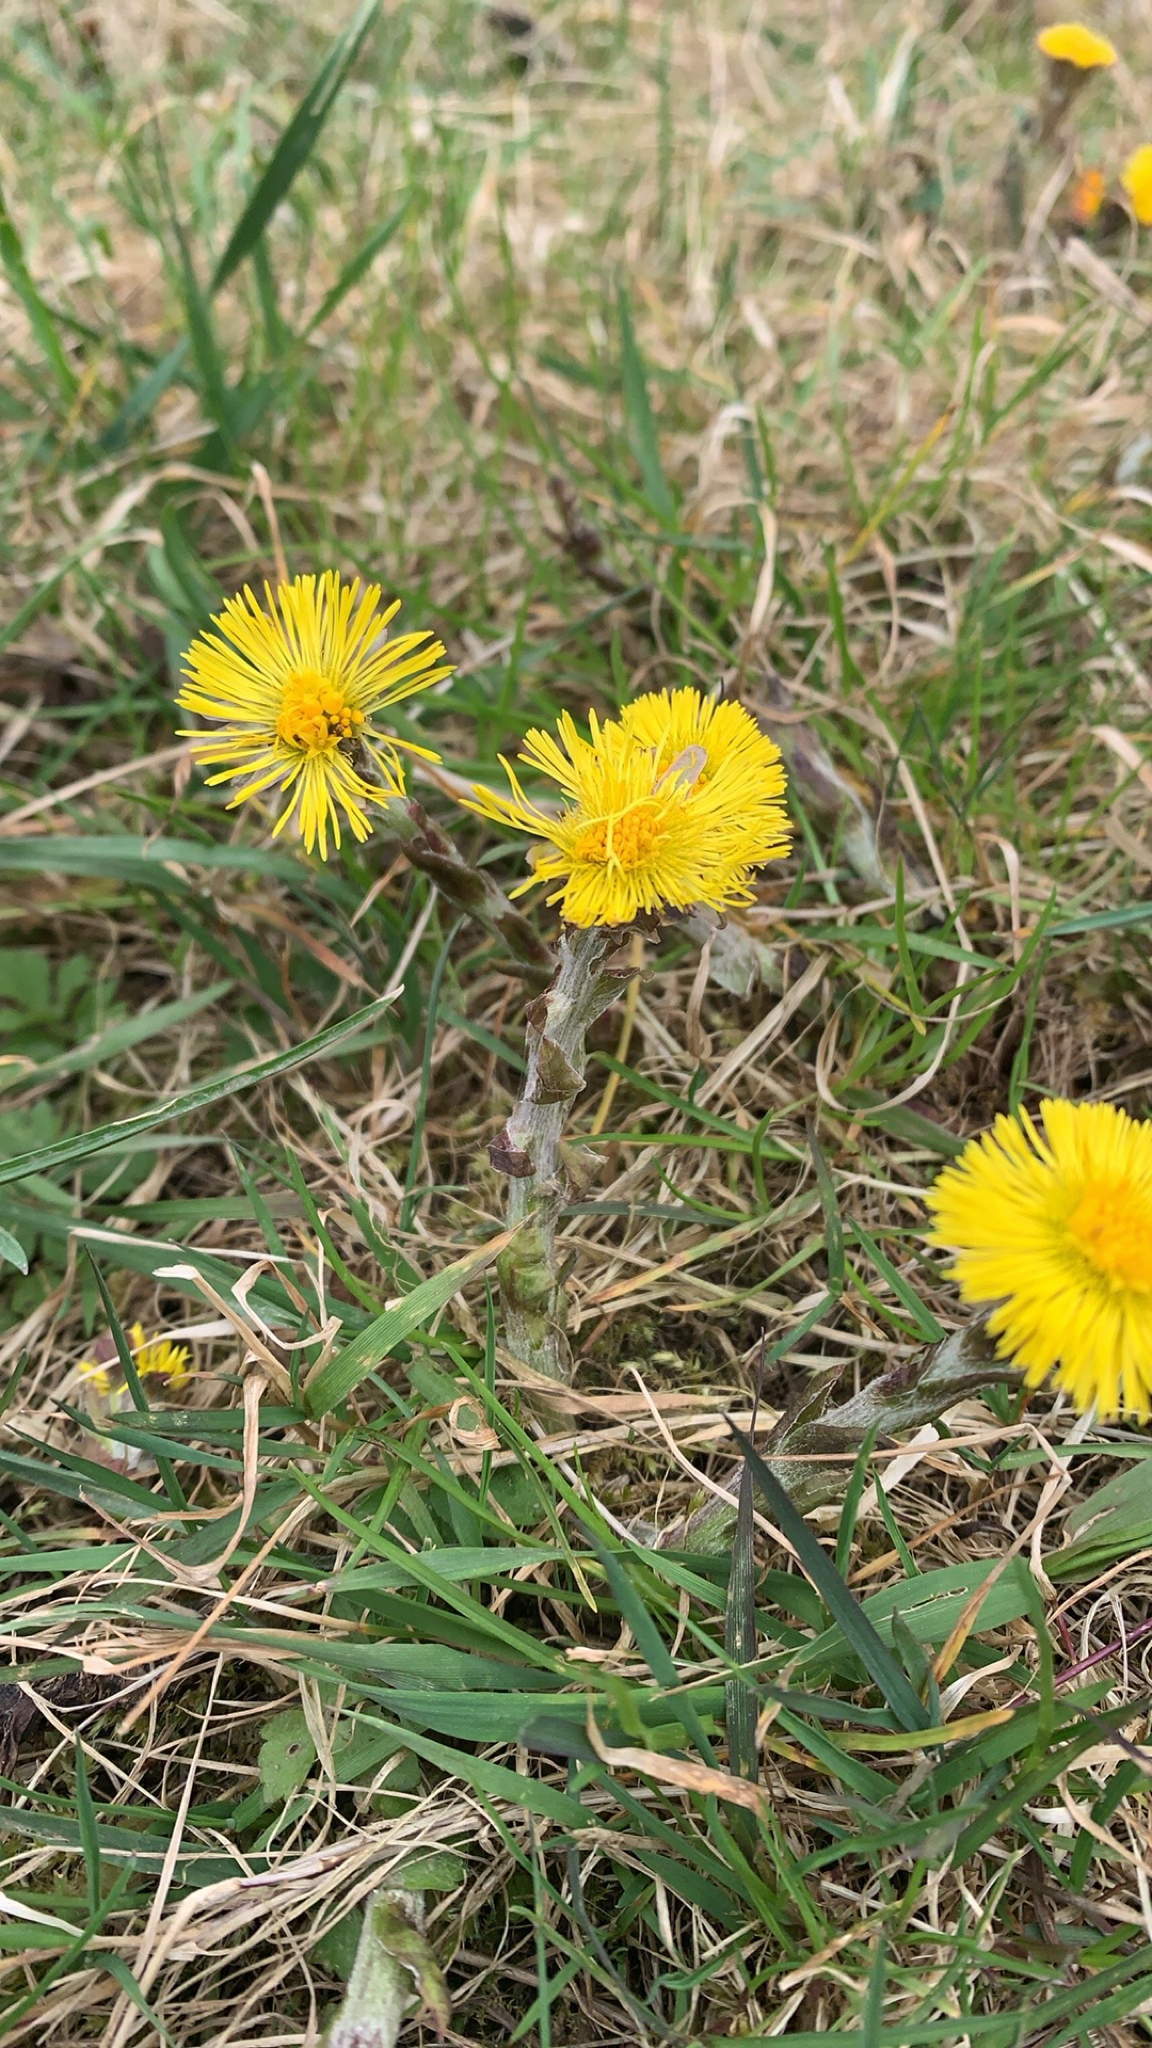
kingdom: Plantae
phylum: Tracheophyta
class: Magnoliopsida
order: Asterales
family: Asteraceae
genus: Tussilago
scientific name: Tussilago farfara
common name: Coltsfoot
